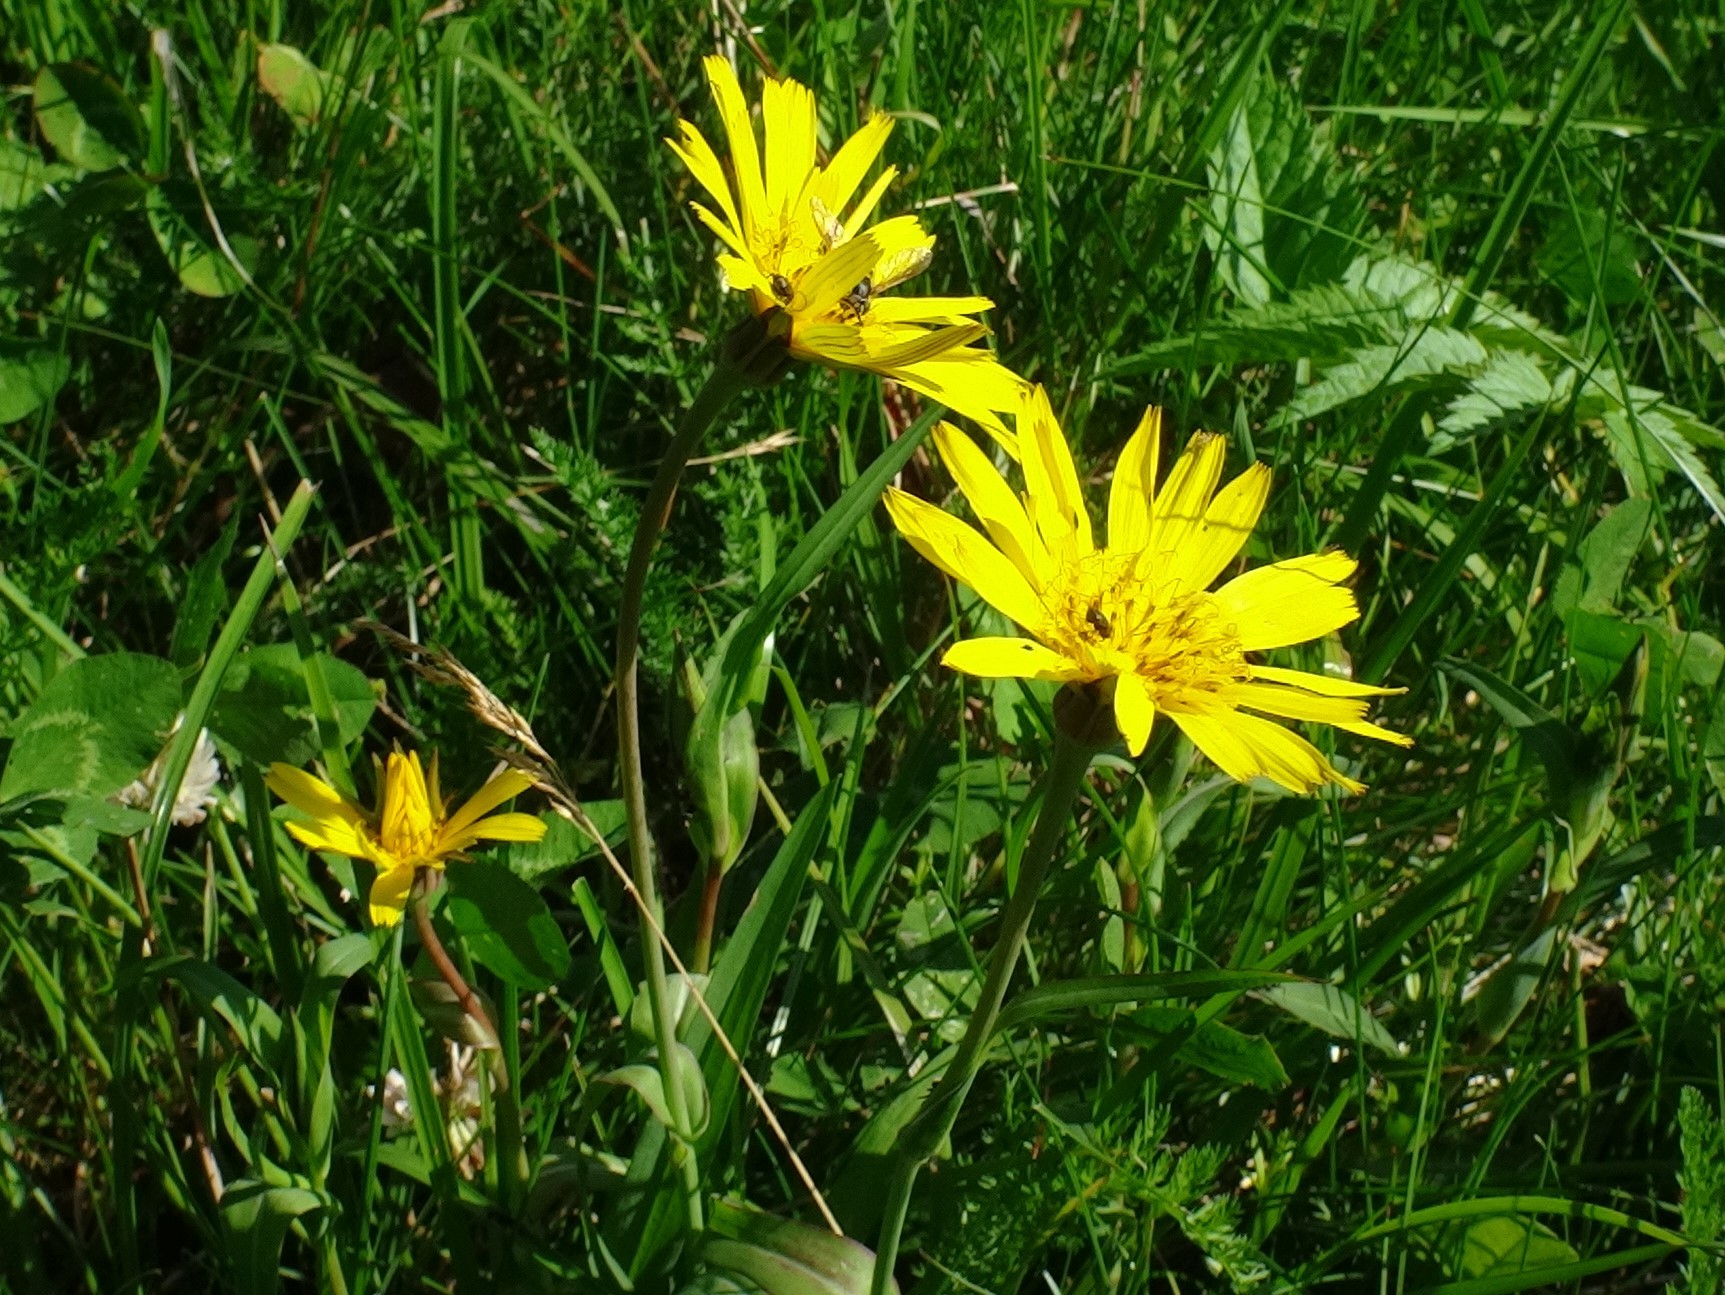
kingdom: Plantae
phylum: Tracheophyta
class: Magnoliopsida
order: Asterales
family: Asteraceae
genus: Tragopogon
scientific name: Tragopogon orientalis
